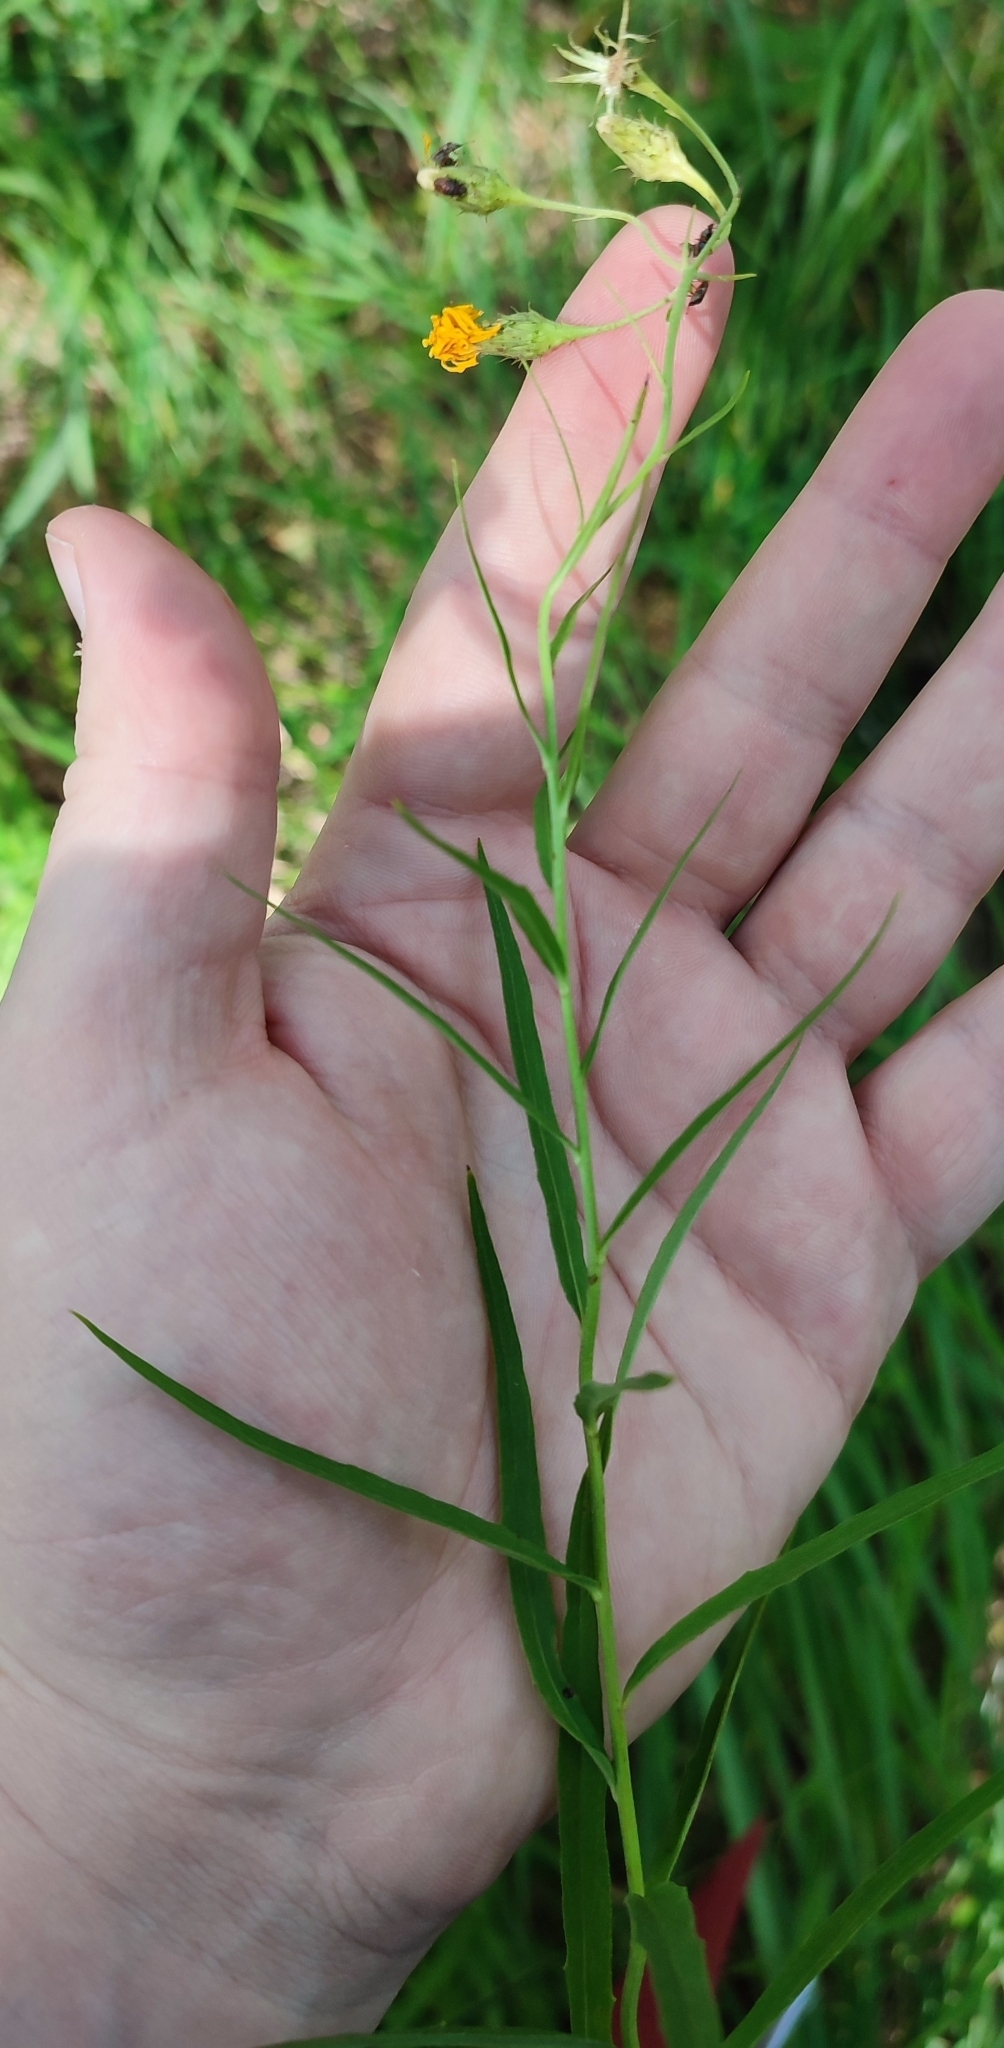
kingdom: Plantae
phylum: Tracheophyta
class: Magnoliopsida
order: Asterales
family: Asteraceae
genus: Hieracium
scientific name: Hieracium umbellatum
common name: Northern hawkweed
